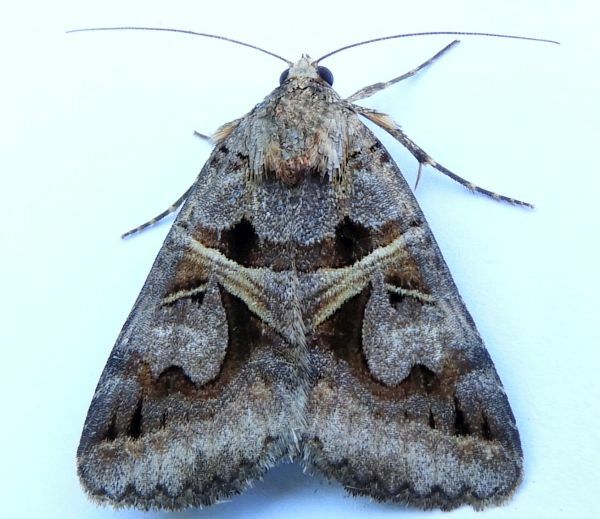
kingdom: Animalia
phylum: Arthropoda
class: Insecta
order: Lepidoptera
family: Erebidae
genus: Drasteria
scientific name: Drasteria grandirena
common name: Figure-seven moth
